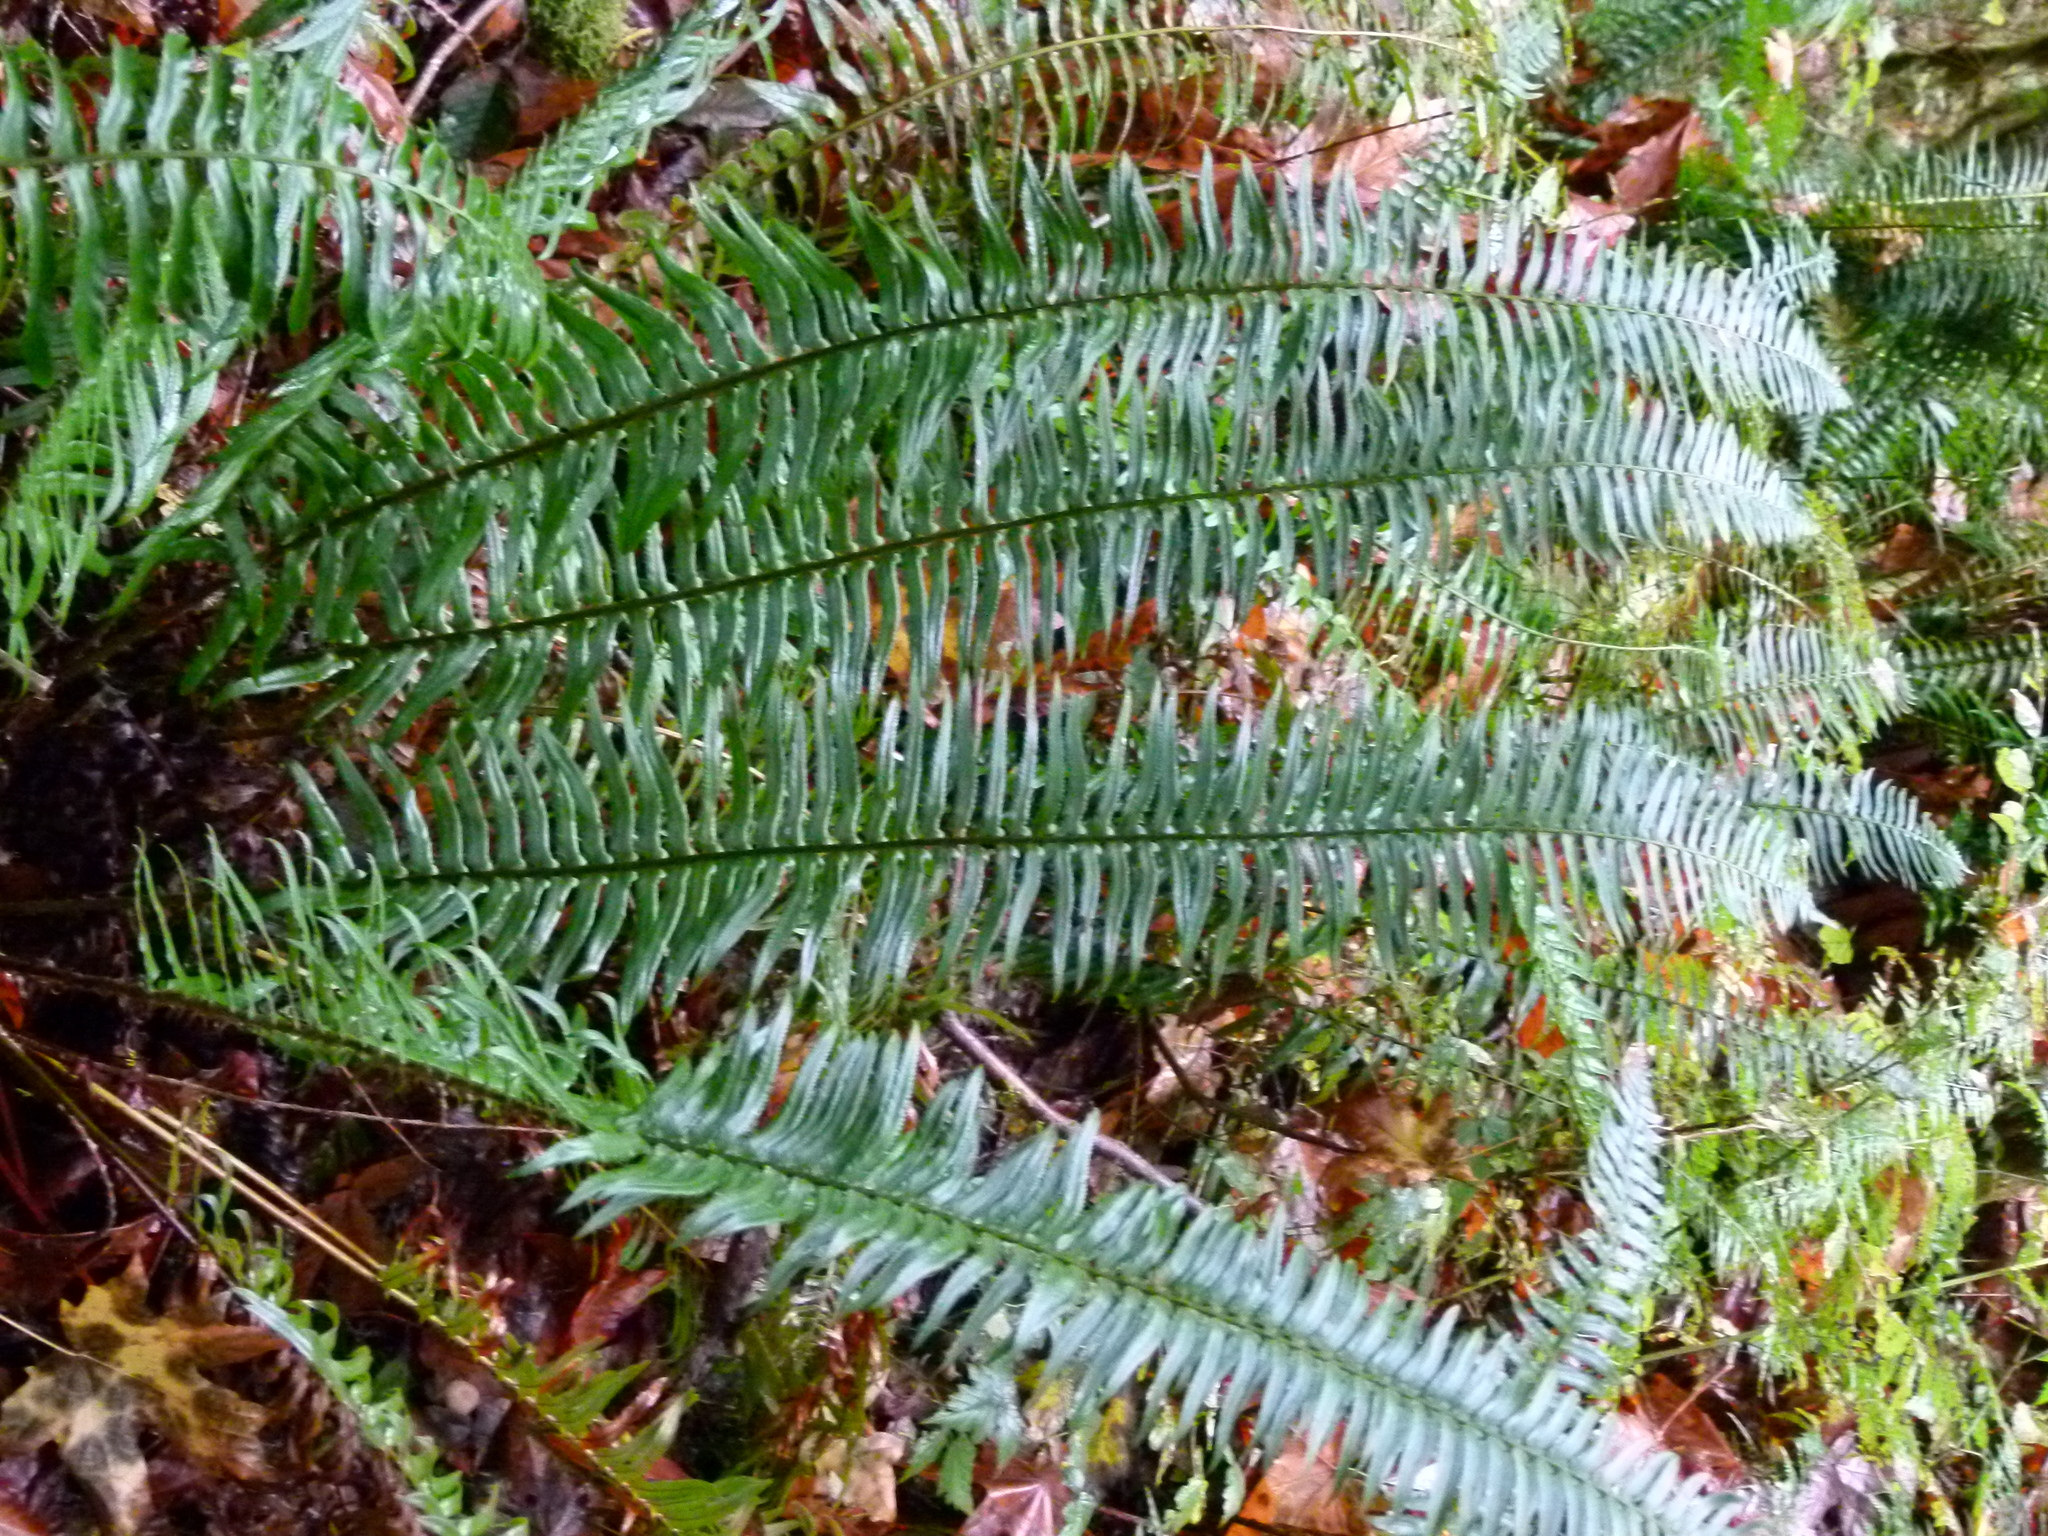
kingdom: Plantae
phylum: Tracheophyta
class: Polypodiopsida
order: Polypodiales
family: Dryopteridaceae
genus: Polystichum
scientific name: Polystichum munitum
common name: Western sword-fern
